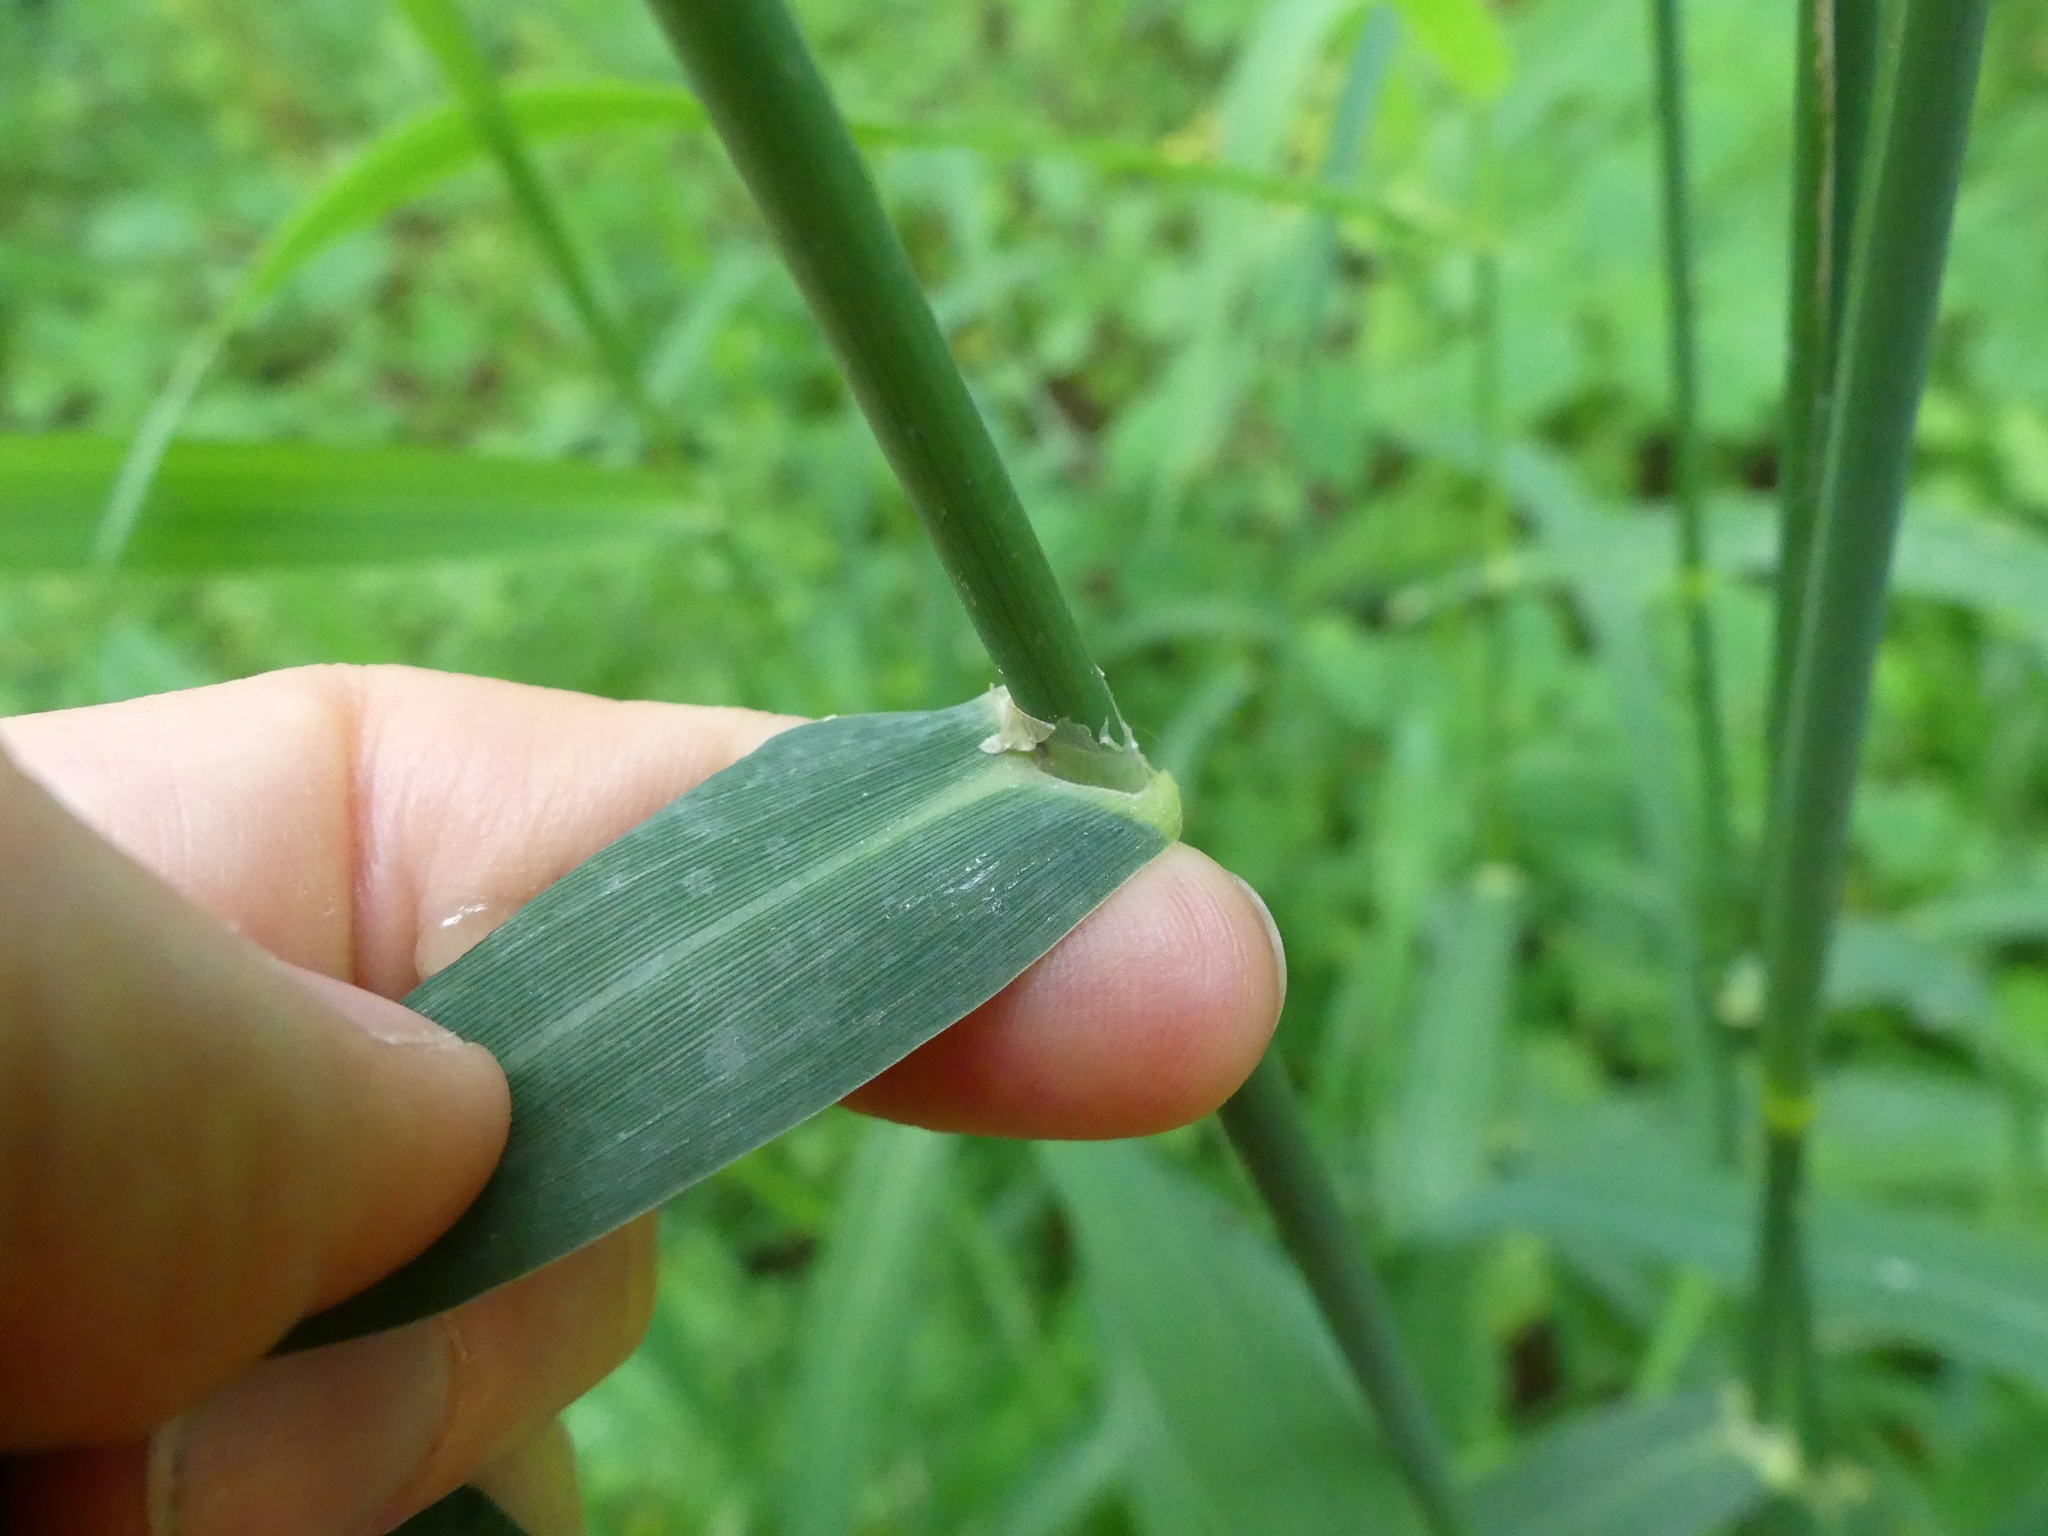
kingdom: Plantae
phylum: Tracheophyta
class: Liliopsida
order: Poales
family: Poaceae
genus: Phalaris
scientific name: Phalaris arundinacea
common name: Reed canary-grass
